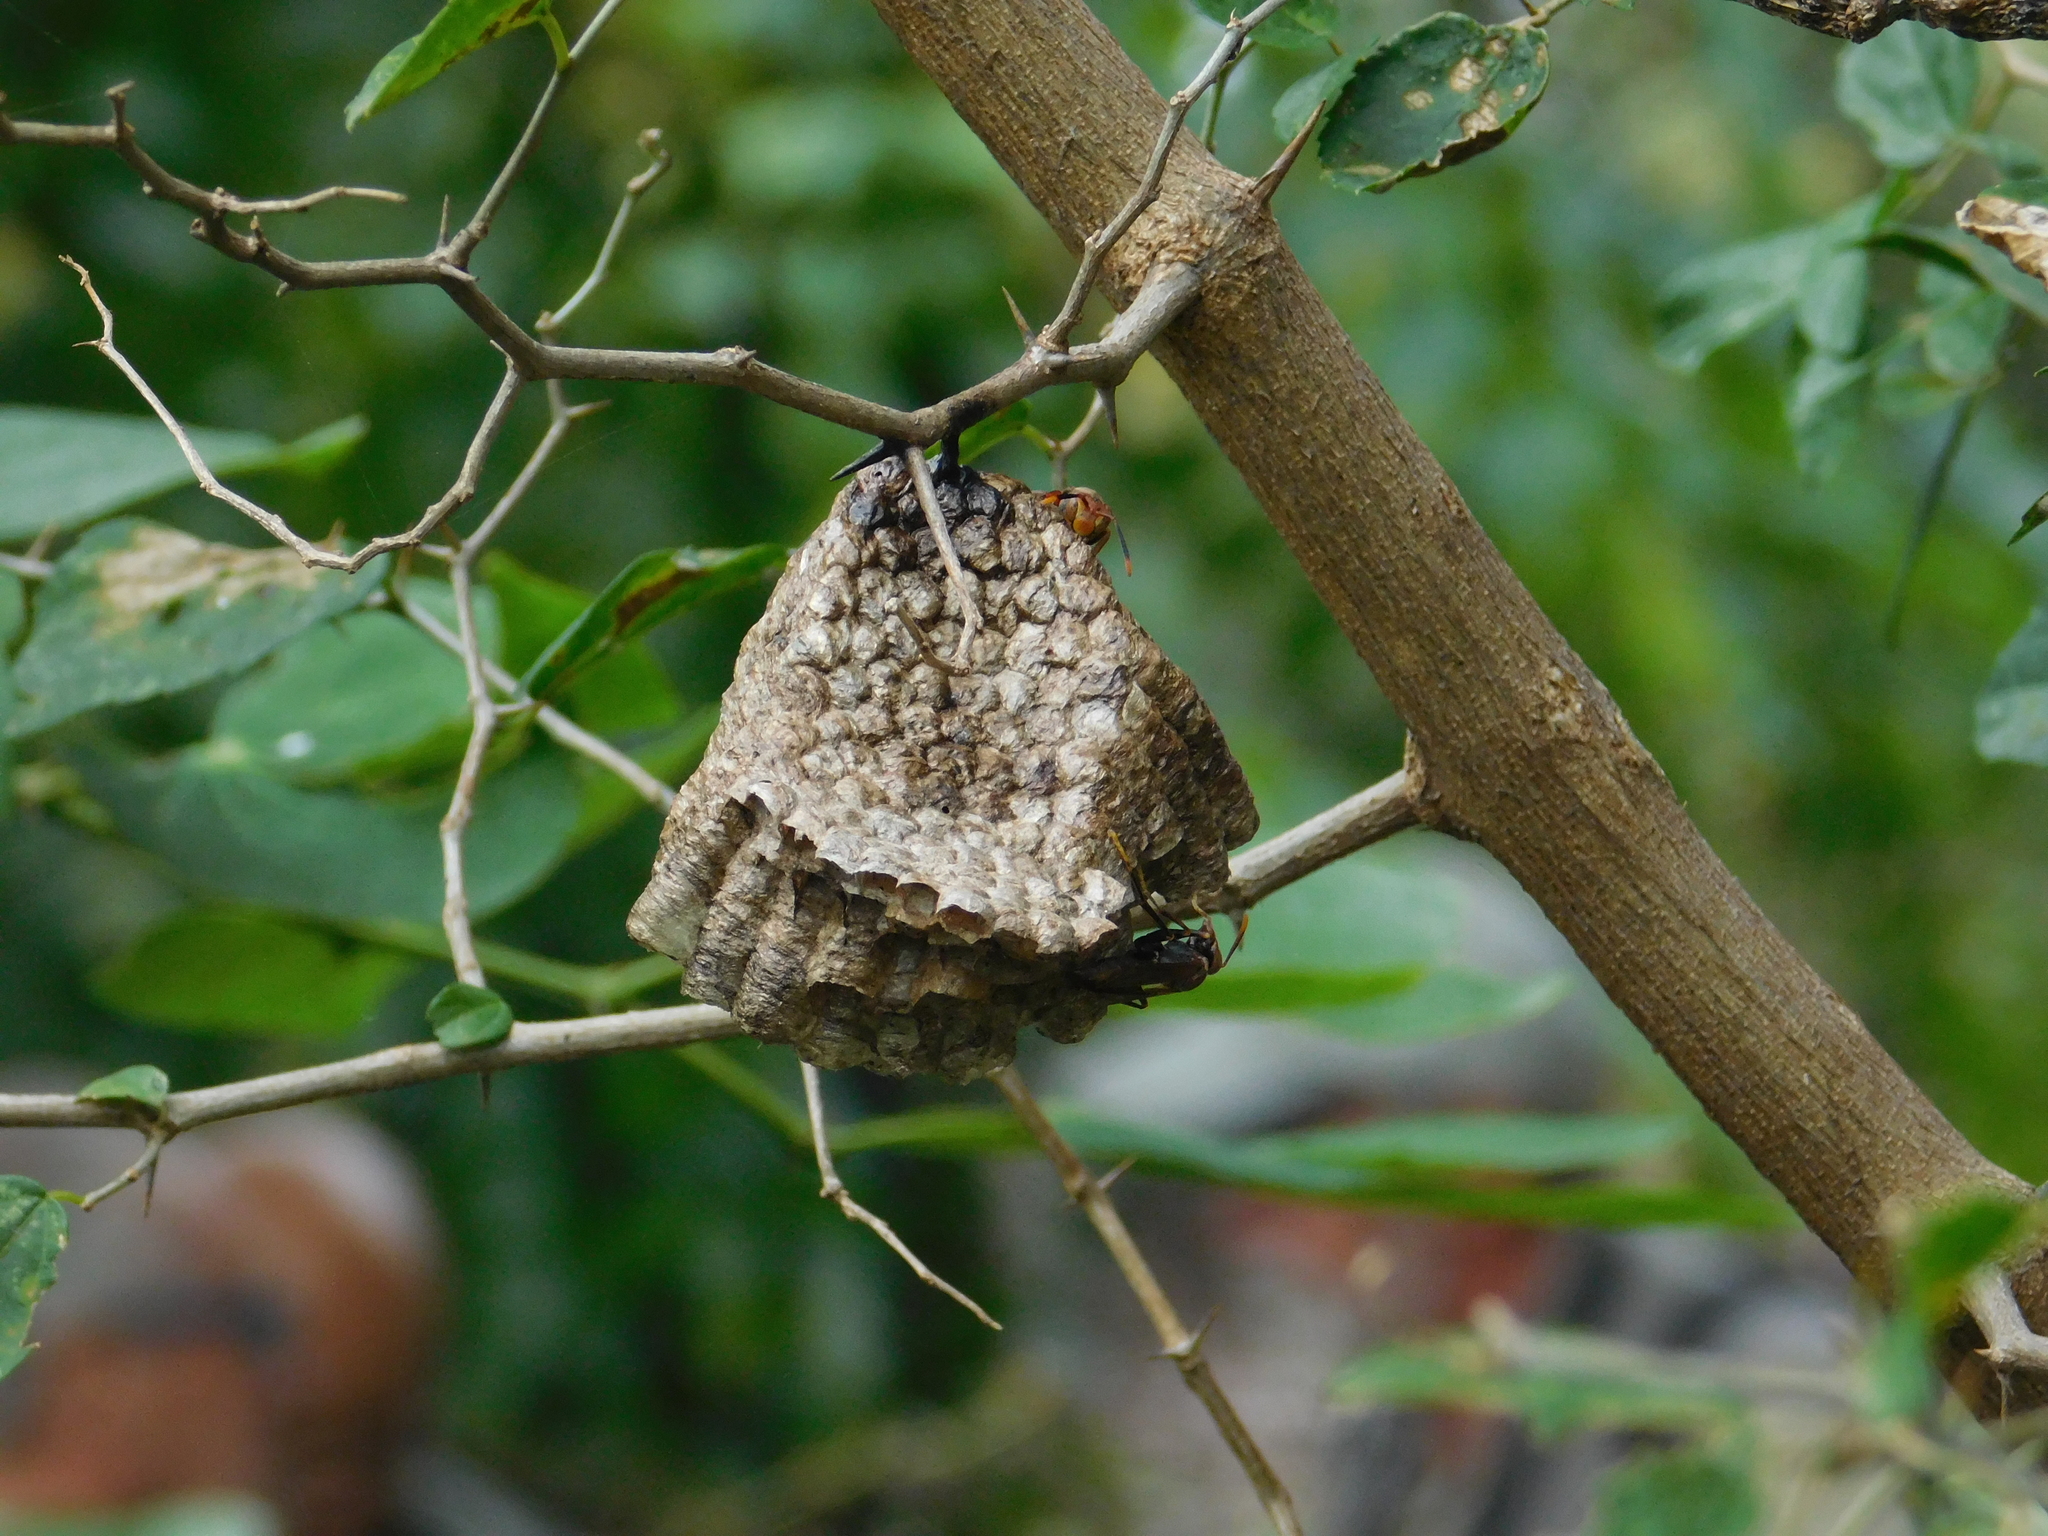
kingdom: Animalia
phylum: Arthropoda
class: Insecta
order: Hymenoptera
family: Pompilidae
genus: Aphanilopterus
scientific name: Aphanilopterus
